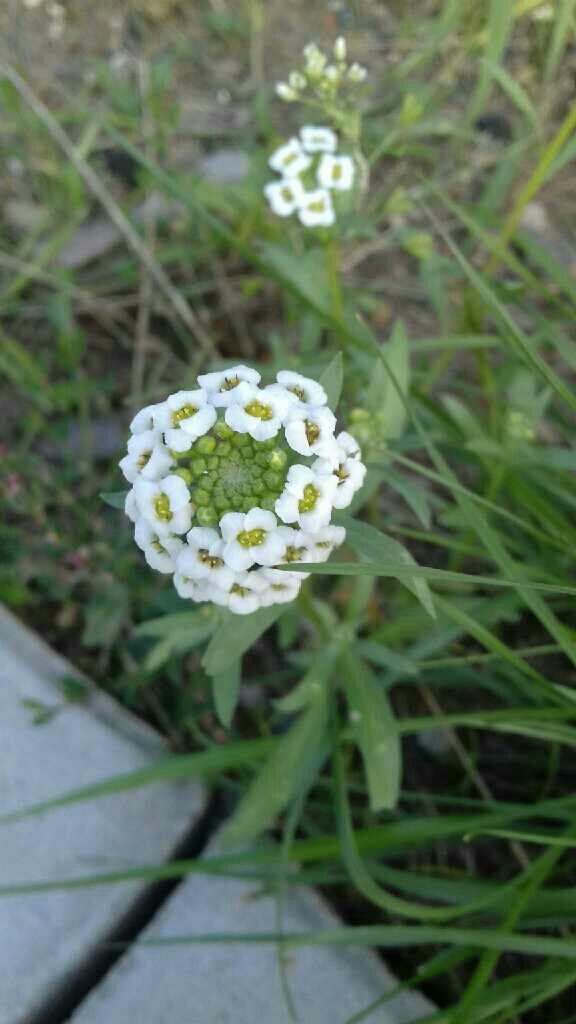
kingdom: Plantae
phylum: Tracheophyta
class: Magnoliopsida
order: Brassicales
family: Brassicaceae
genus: Lobularia
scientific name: Lobularia maritima
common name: Sweet alison
